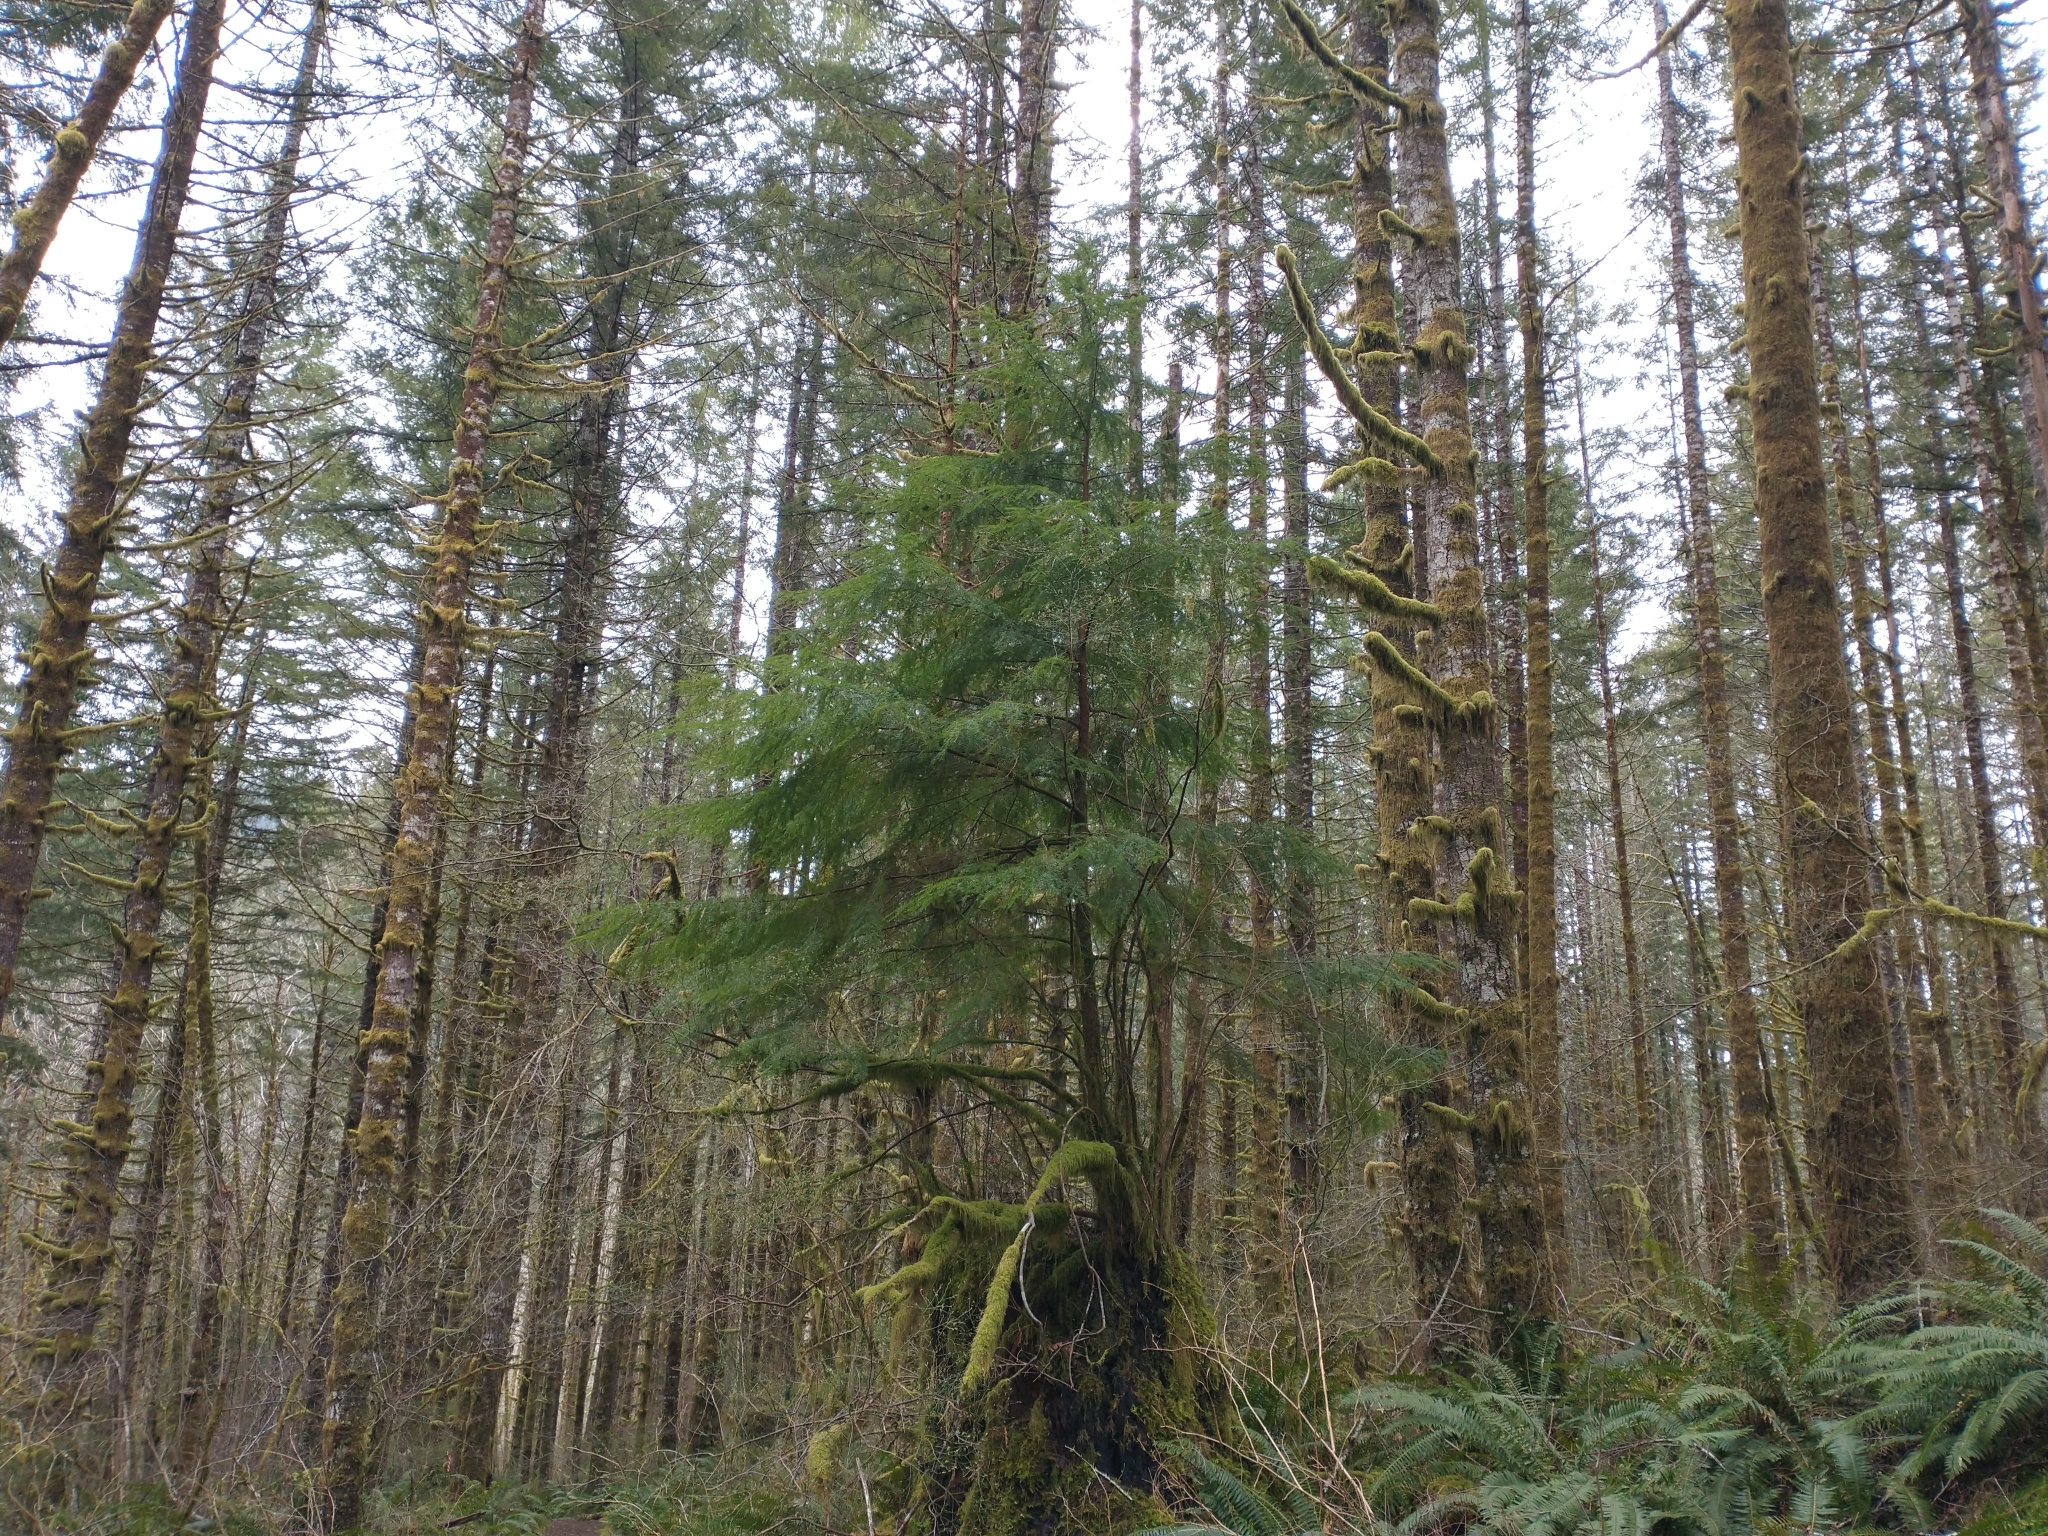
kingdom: Plantae
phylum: Tracheophyta
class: Pinopsida
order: Pinales
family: Pinaceae
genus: Tsuga
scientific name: Tsuga heterophylla
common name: Western hemlock
